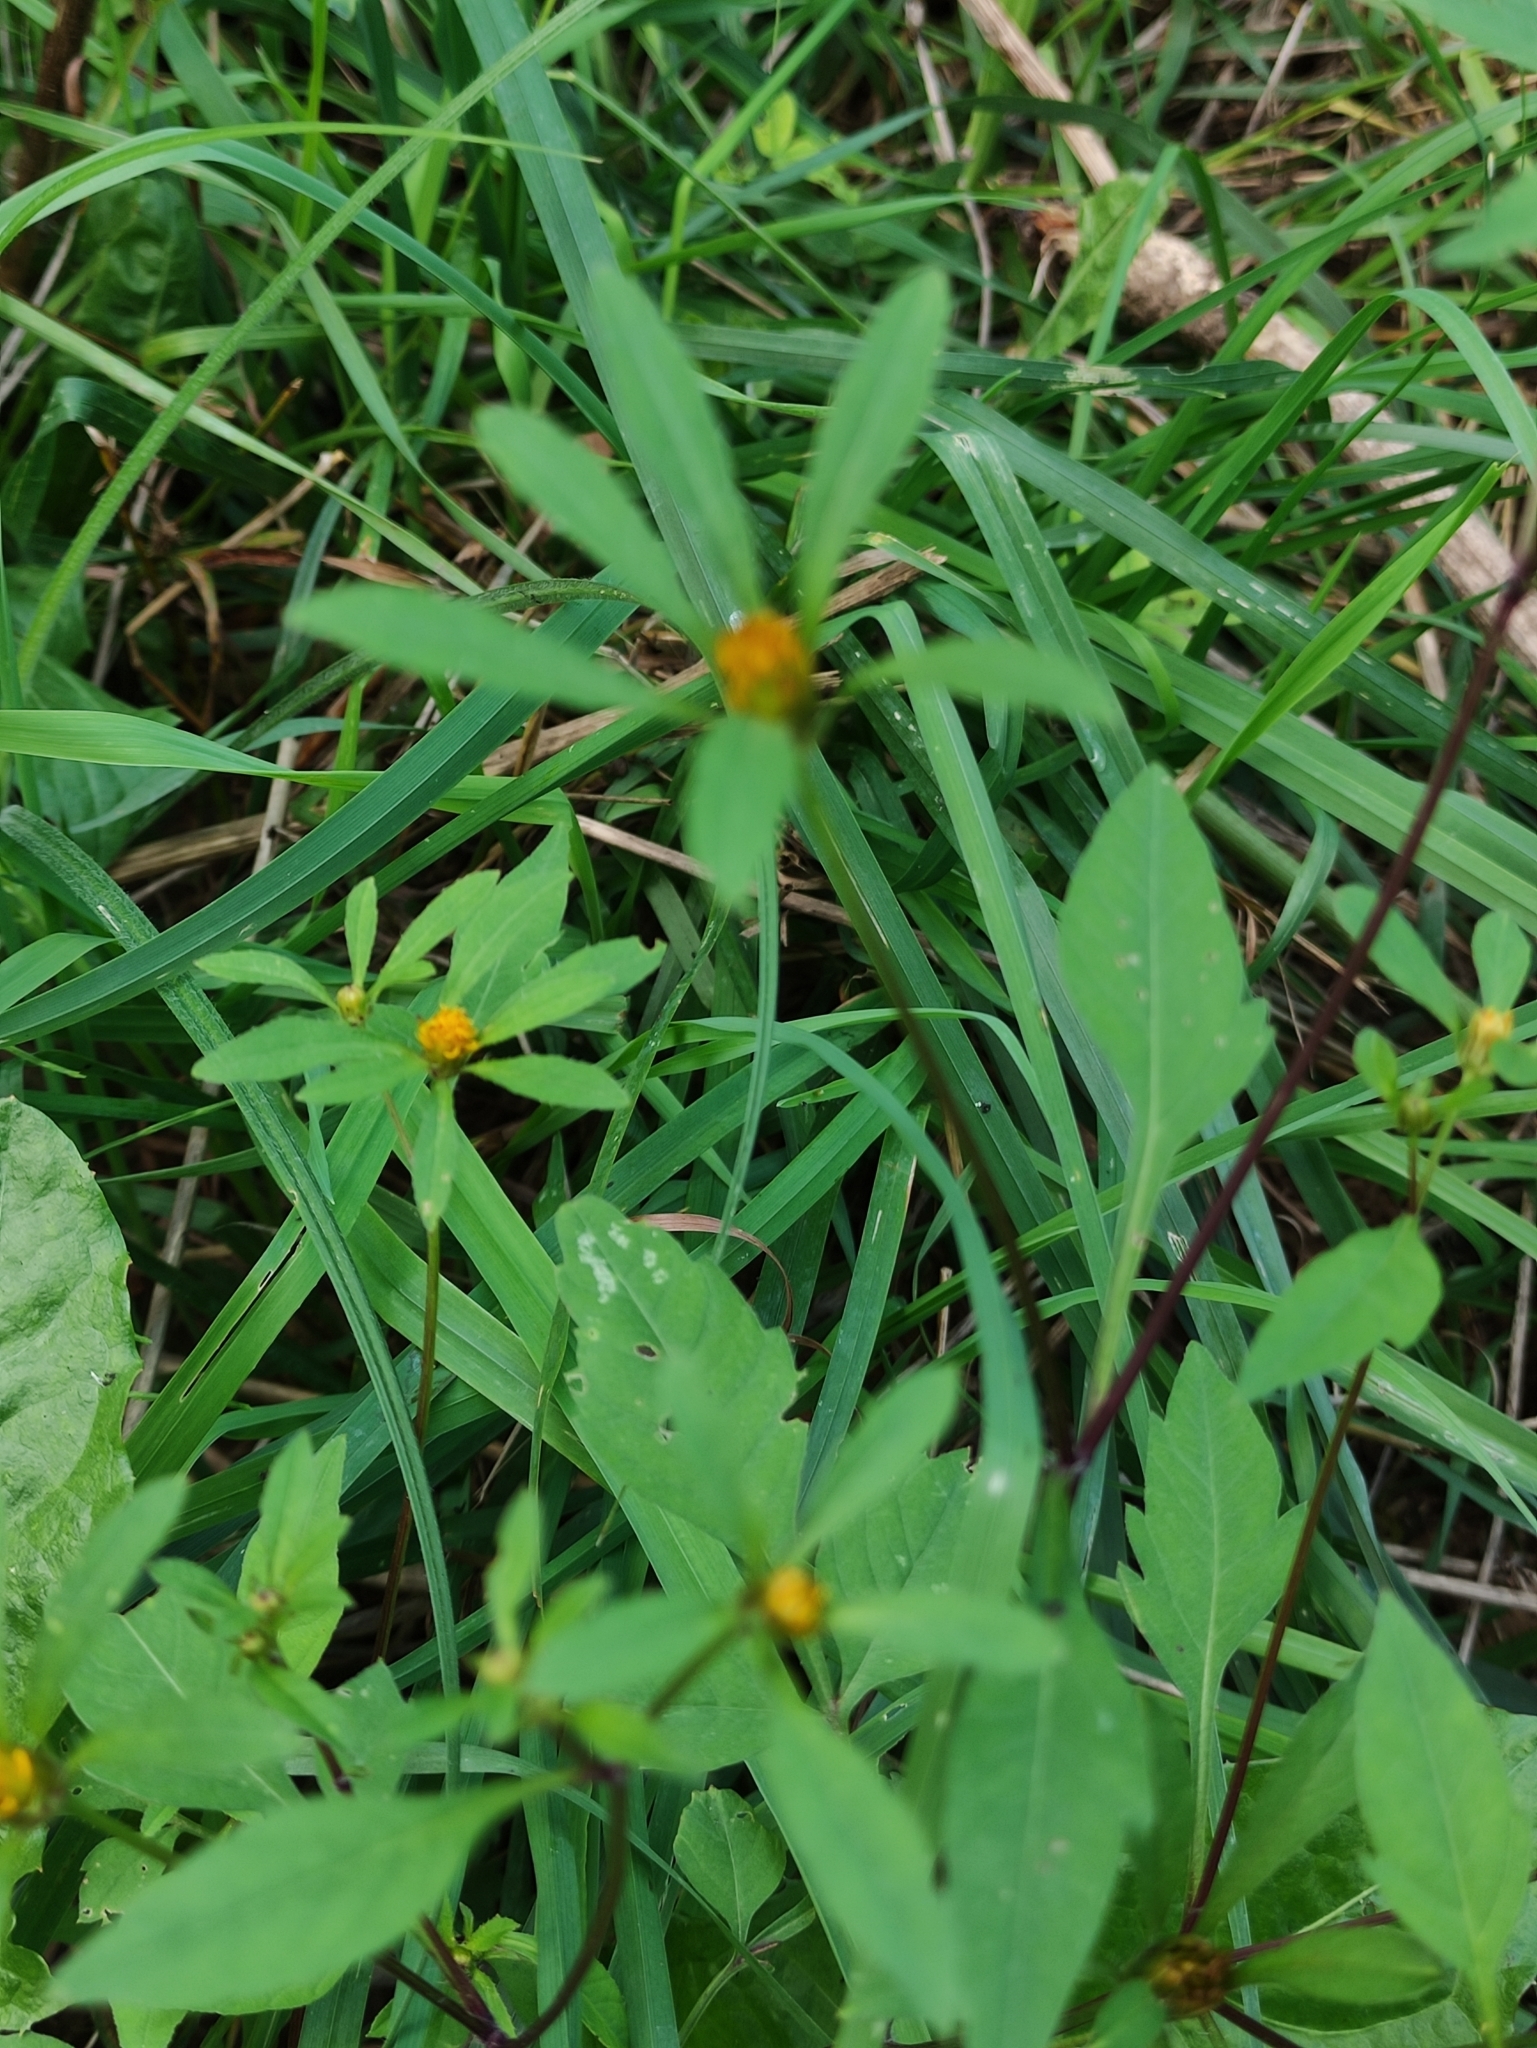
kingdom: Plantae
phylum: Tracheophyta
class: Magnoliopsida
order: Asterales
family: Asteraceae
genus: Bidens
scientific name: Bidens frondosa
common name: Beggarticks
